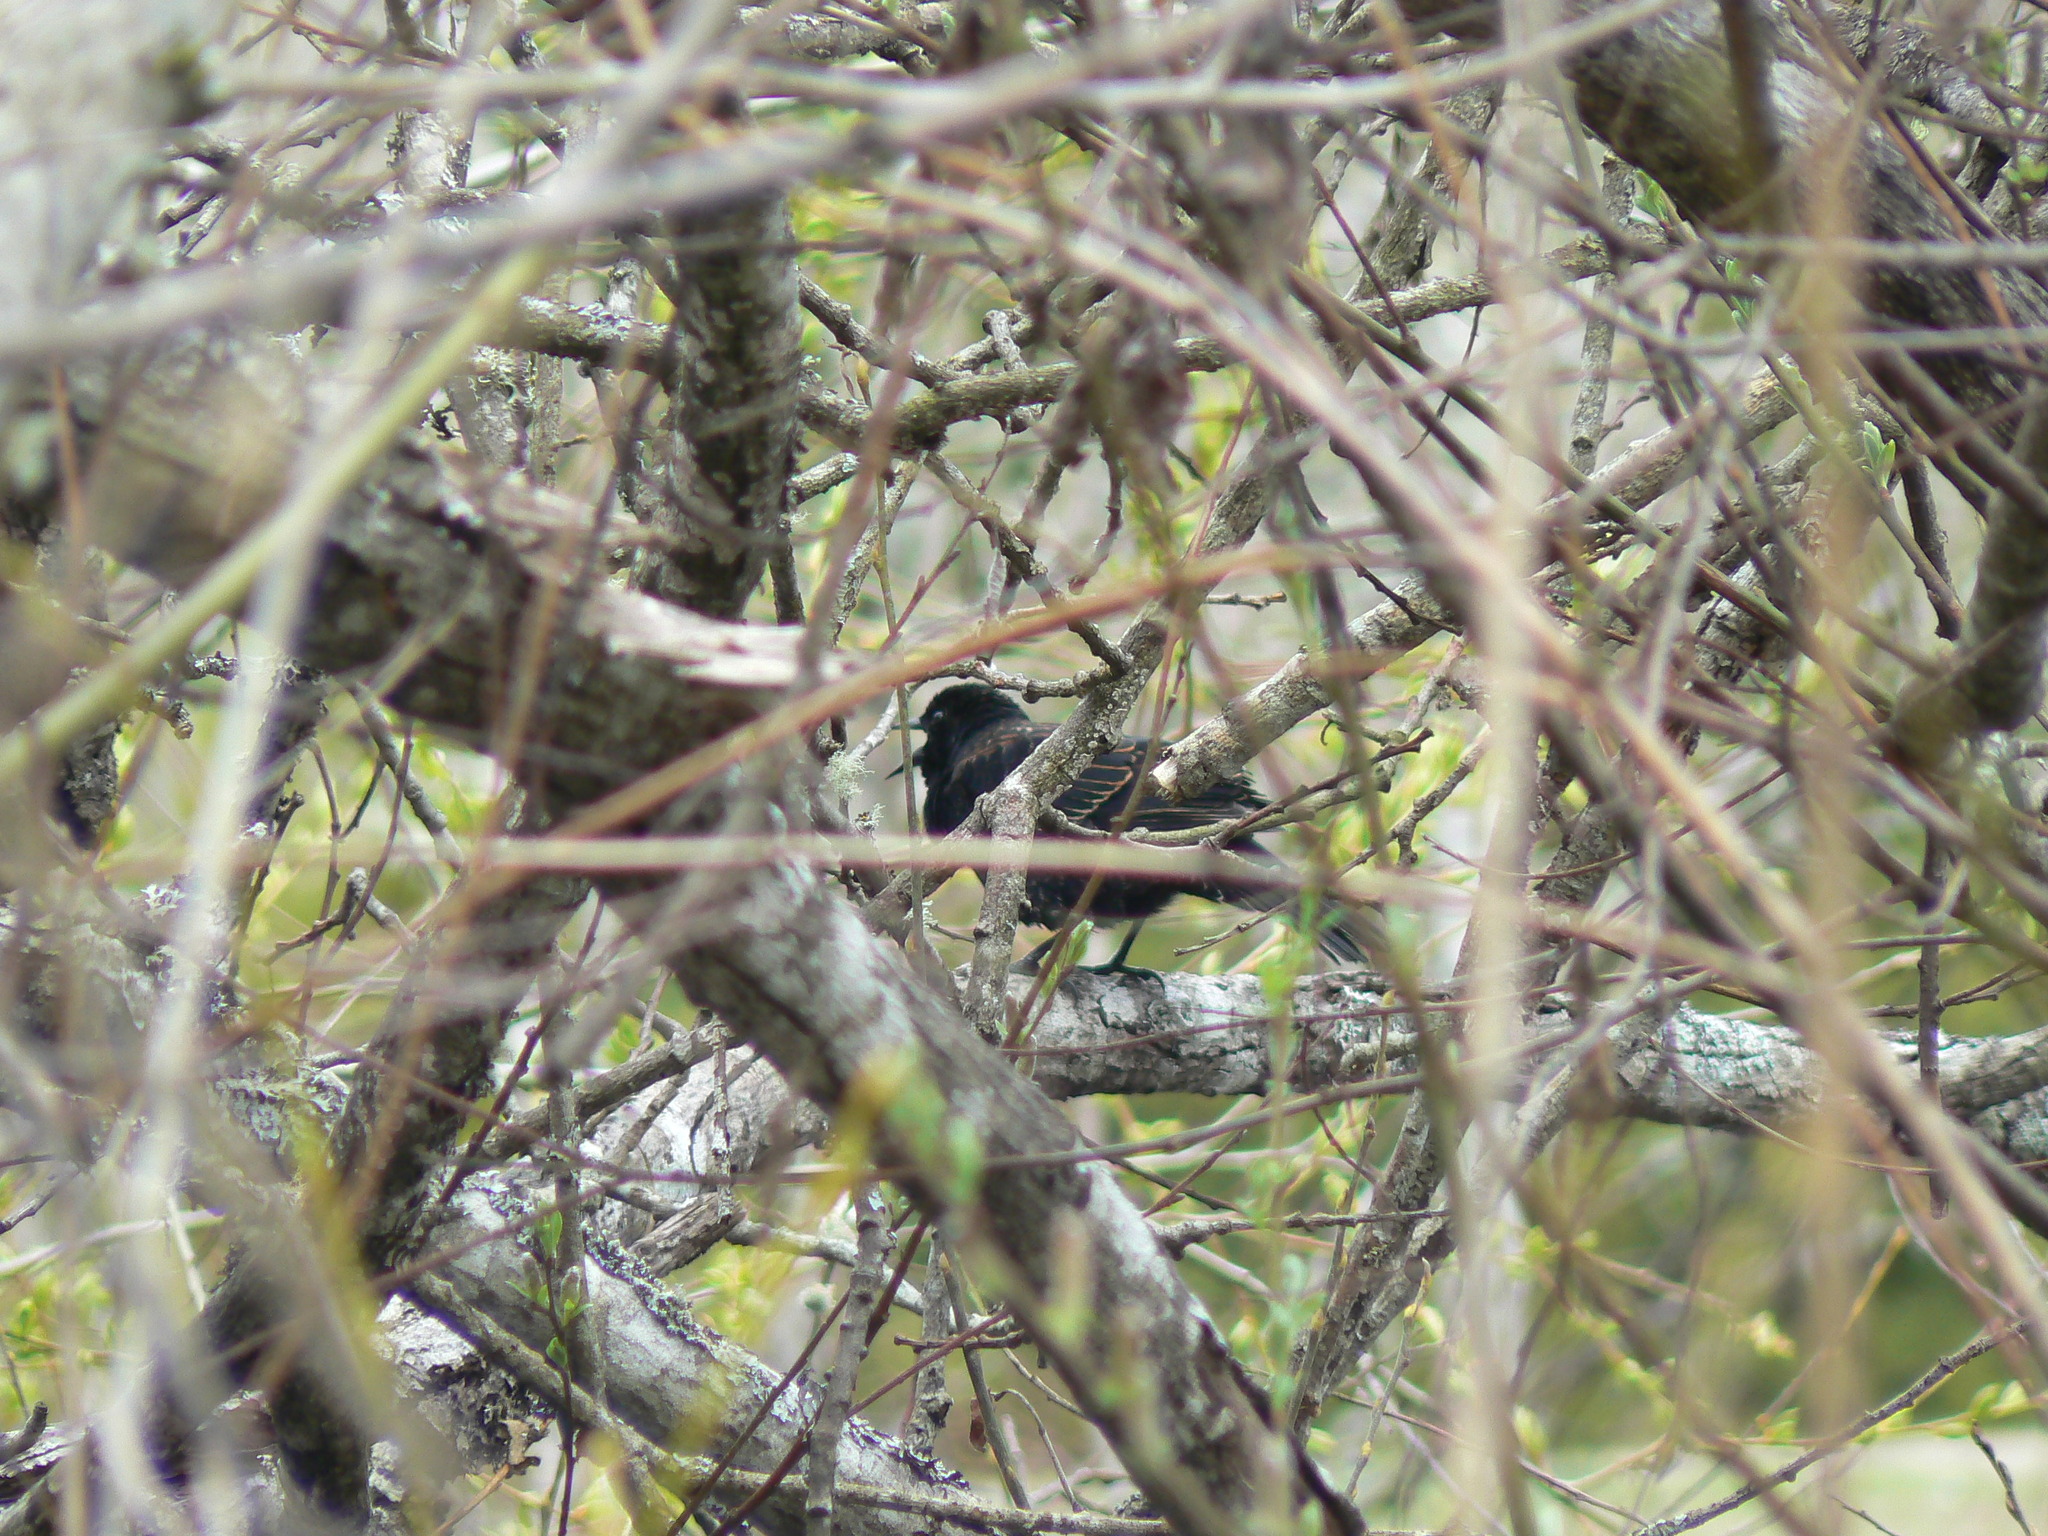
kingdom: Animalia
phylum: Chordata
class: Aves
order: Passeriformes
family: Icteridae
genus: Agelaius
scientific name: Agelaius phoeniceus
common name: Red-winged blackbird
